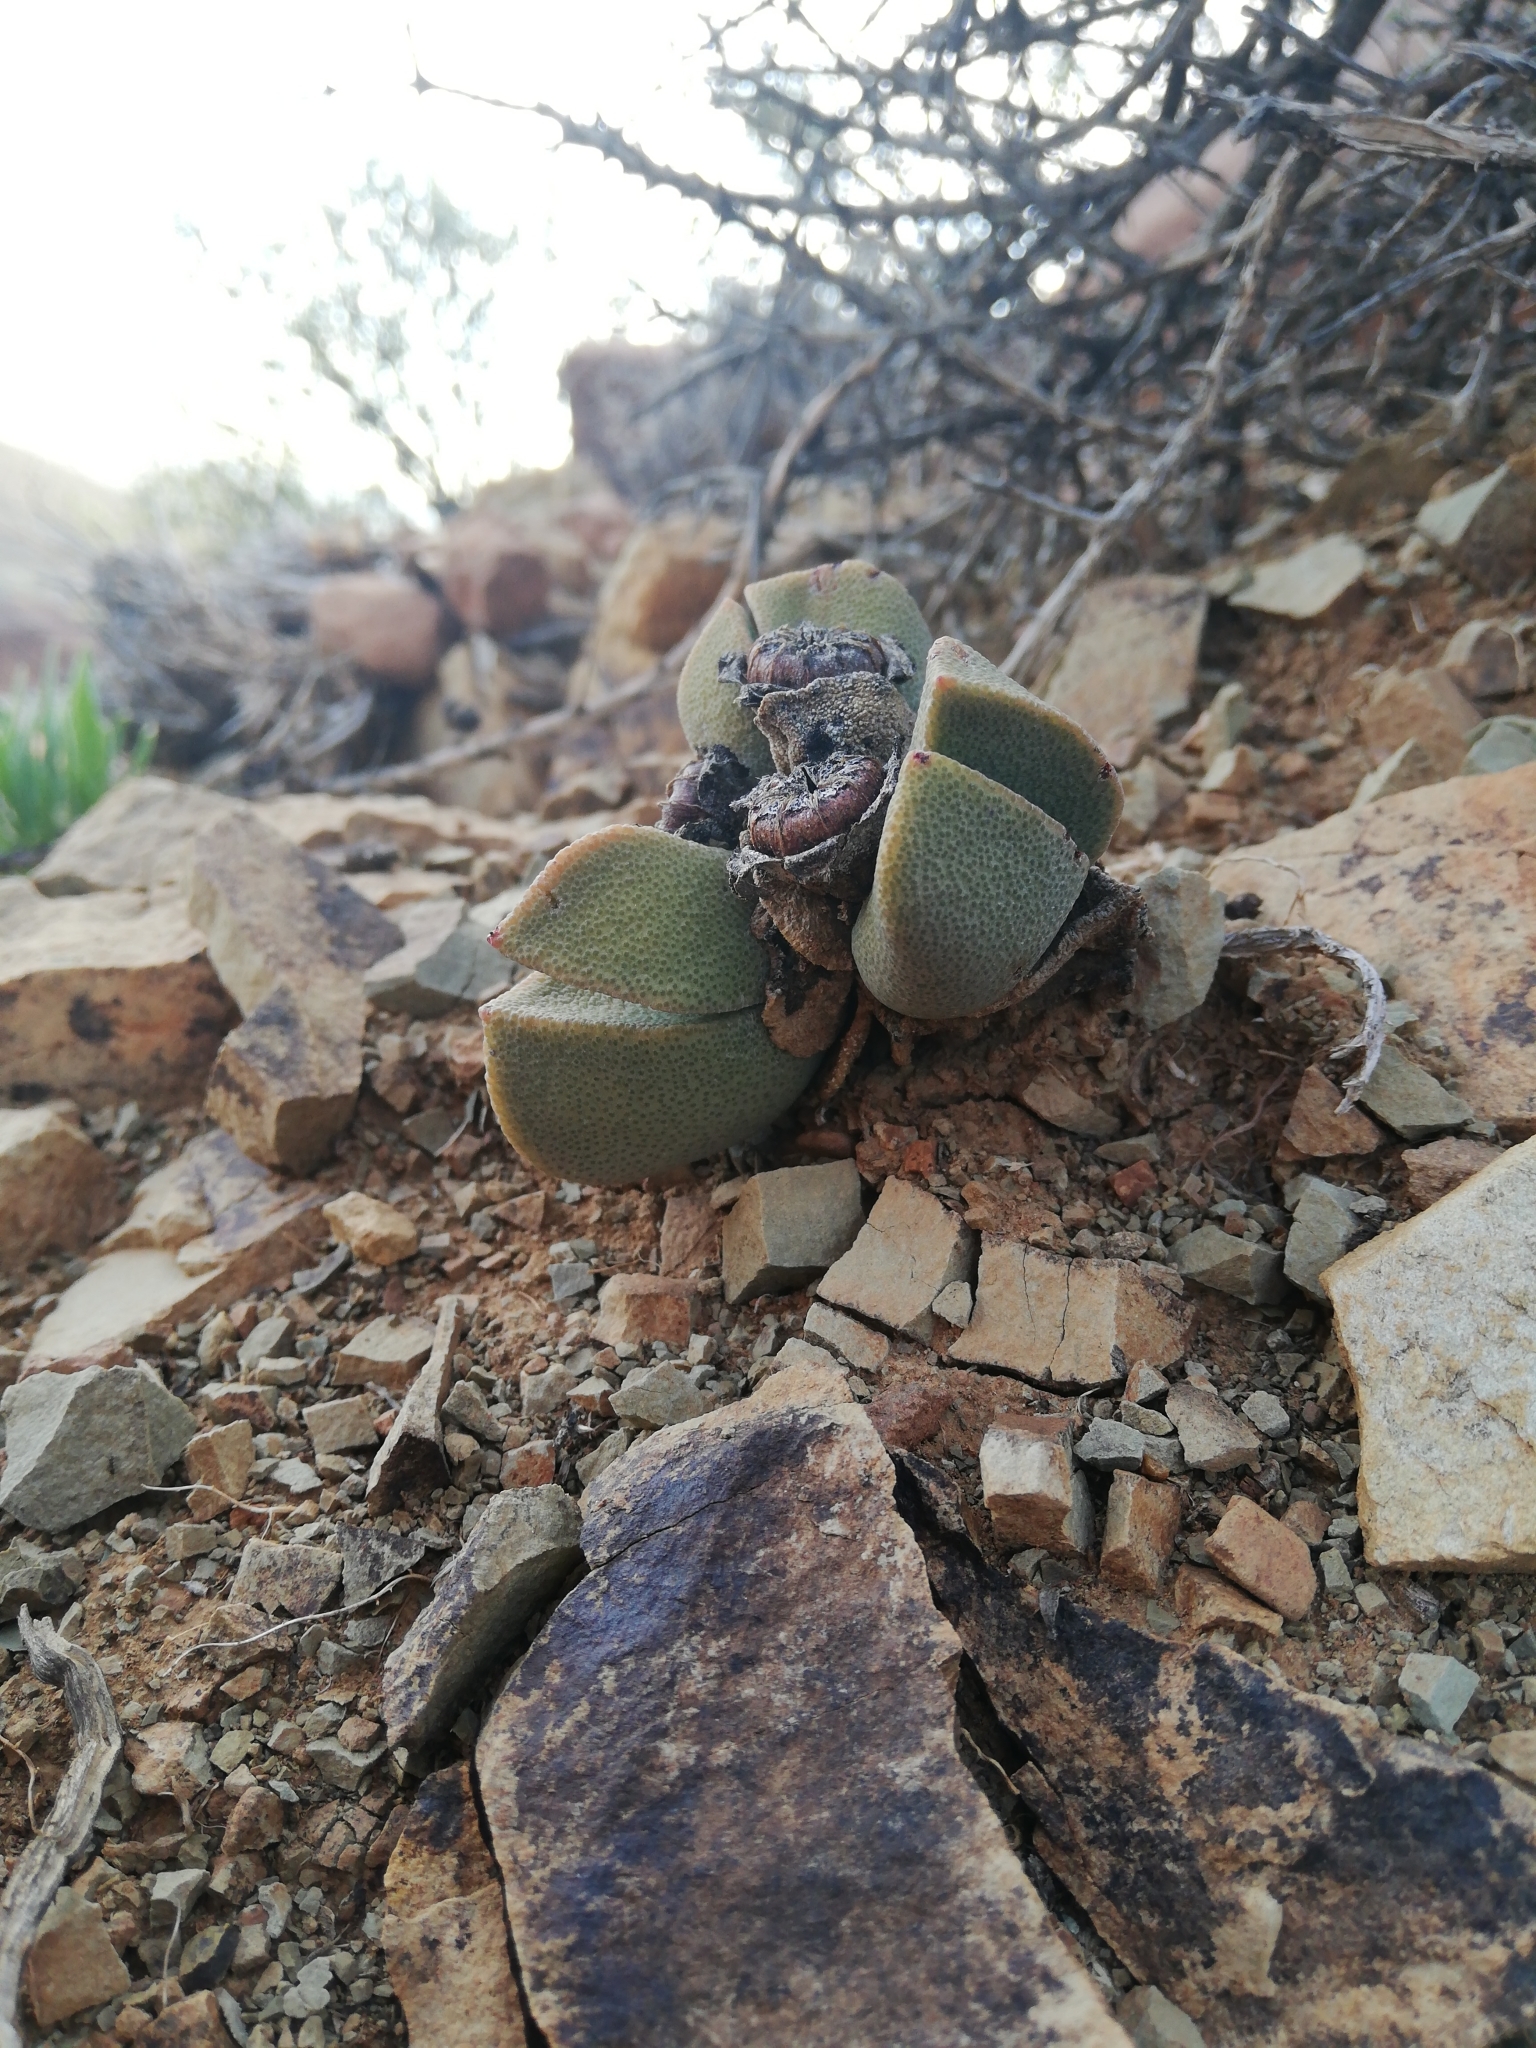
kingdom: Plantae
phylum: Tracheophyta
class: Magnoliopsida
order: Caryophyllales
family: Aizoaceae
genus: Pleiospilos
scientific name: Pleiospilos compactus
